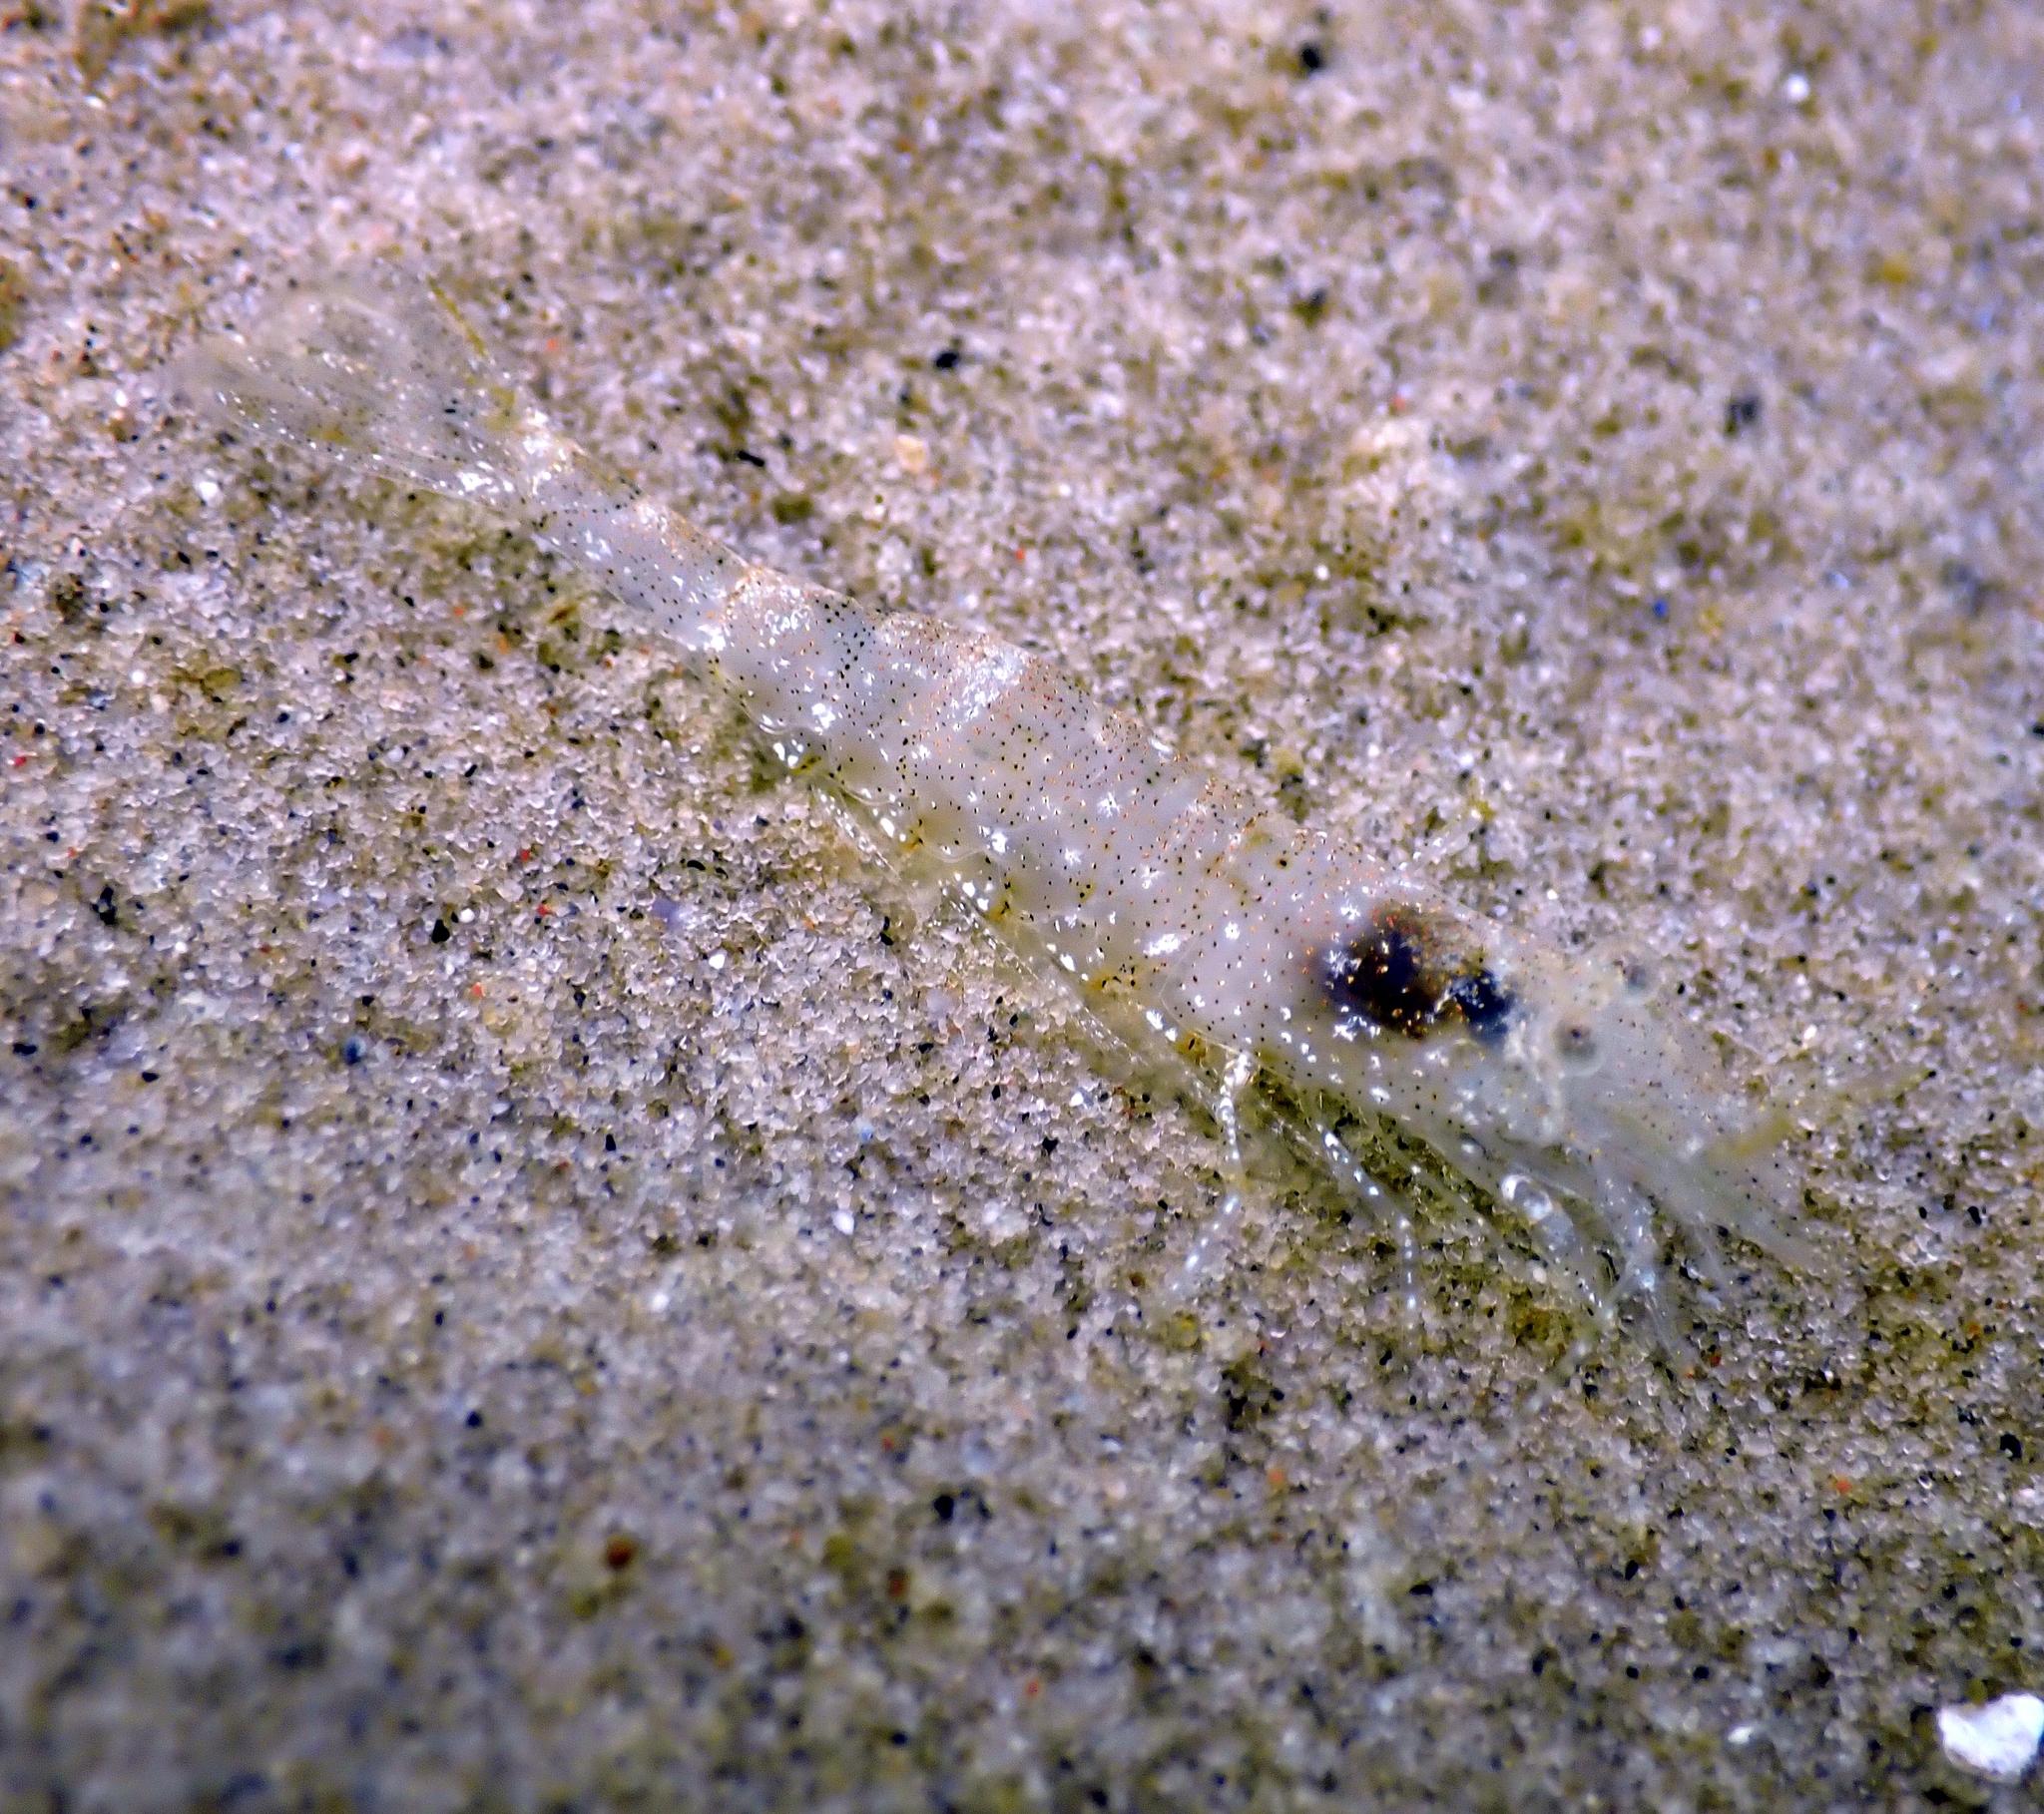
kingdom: Animalia
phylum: Arthropoda
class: Malacostraca
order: Decapoda
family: Crangonidae
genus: Crangon
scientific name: Crangon crangon
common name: Brown shrimp
